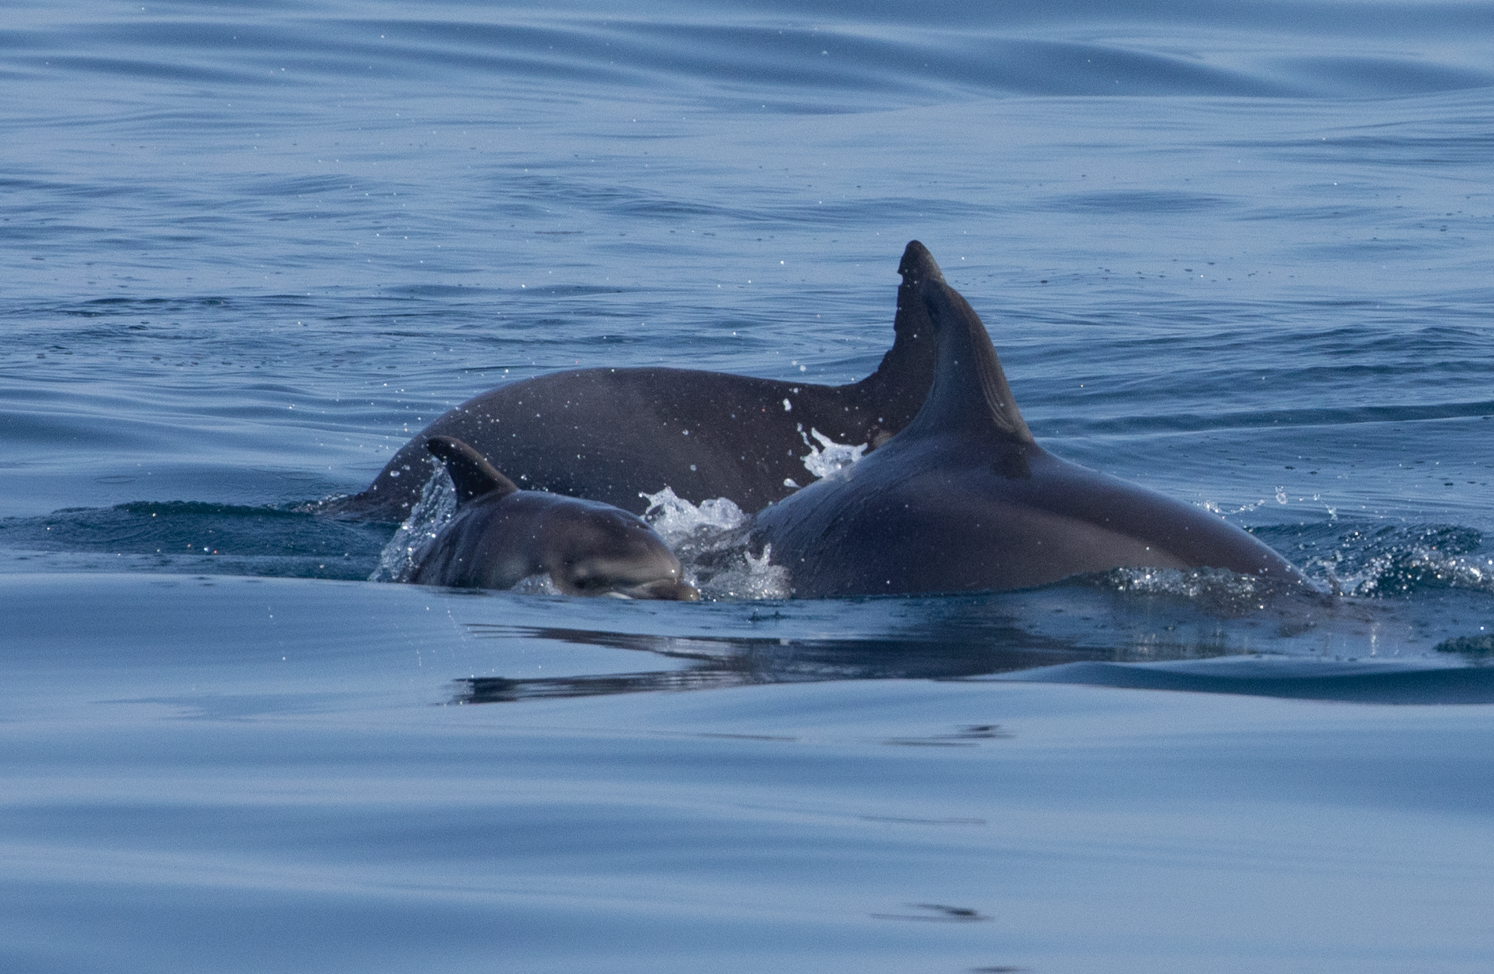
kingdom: Animalia
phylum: Chordata
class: Mammalia
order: Cetacea
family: Delphinidae
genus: Tursiops
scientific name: Tursiops truncatus
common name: Bottlenose dolphin
